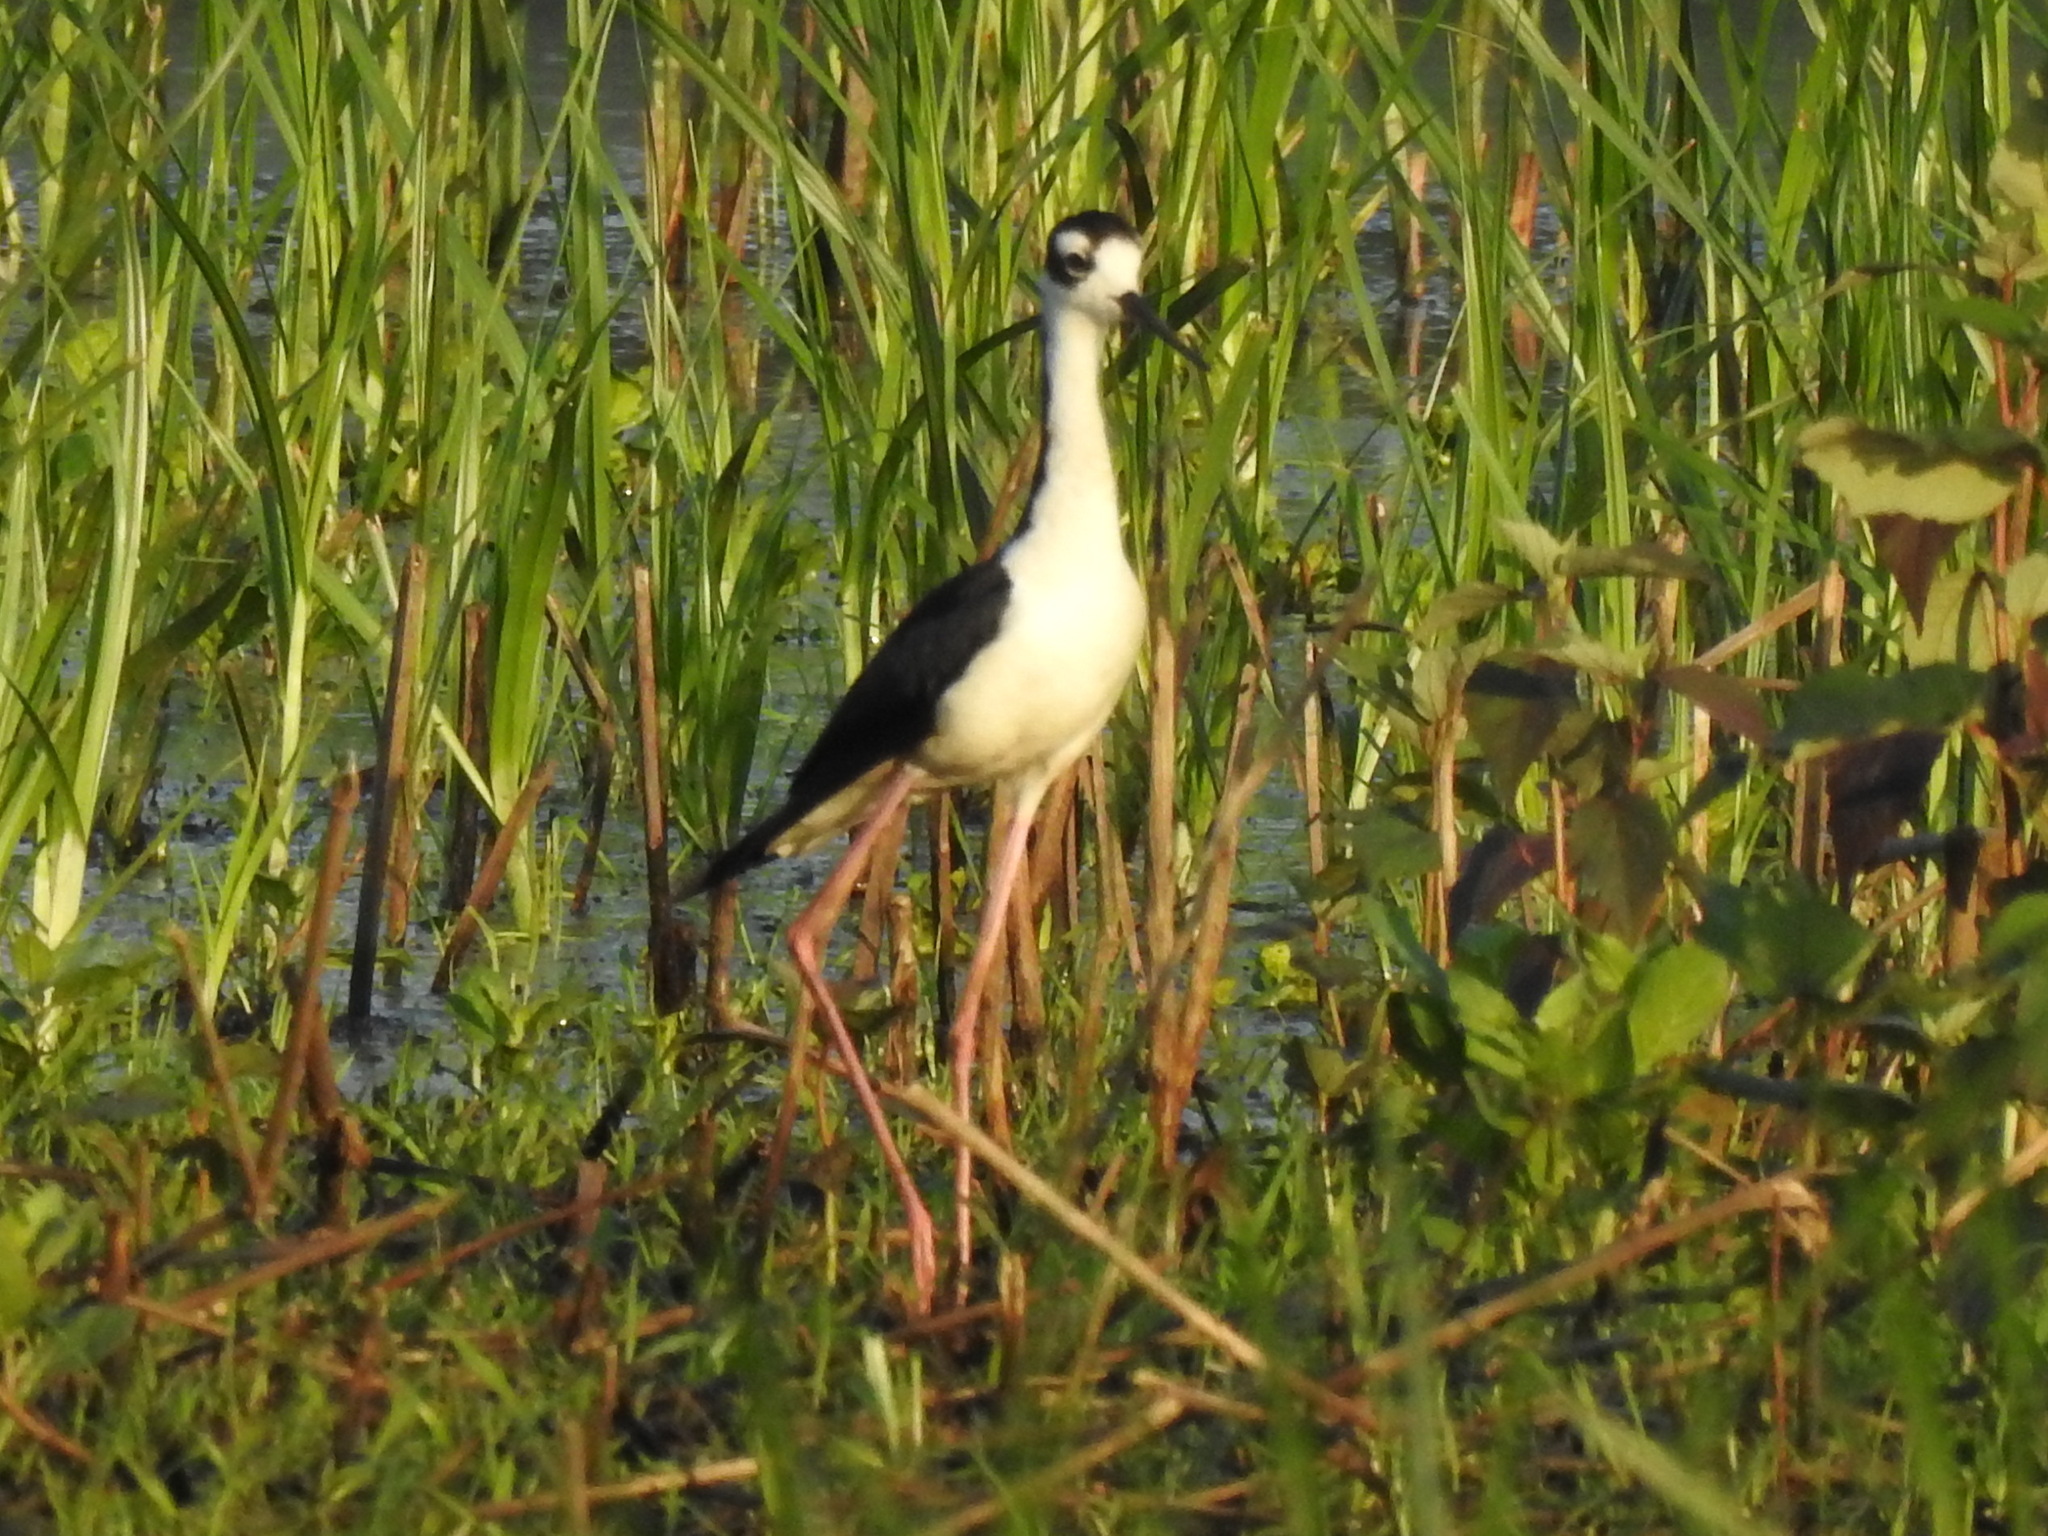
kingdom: Animalia
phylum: Chordata
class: Aves
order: Charadriiformes
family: Recurvirostridae
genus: Himantopus
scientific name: Himantopus mexicanus
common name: Black-necked stilt
